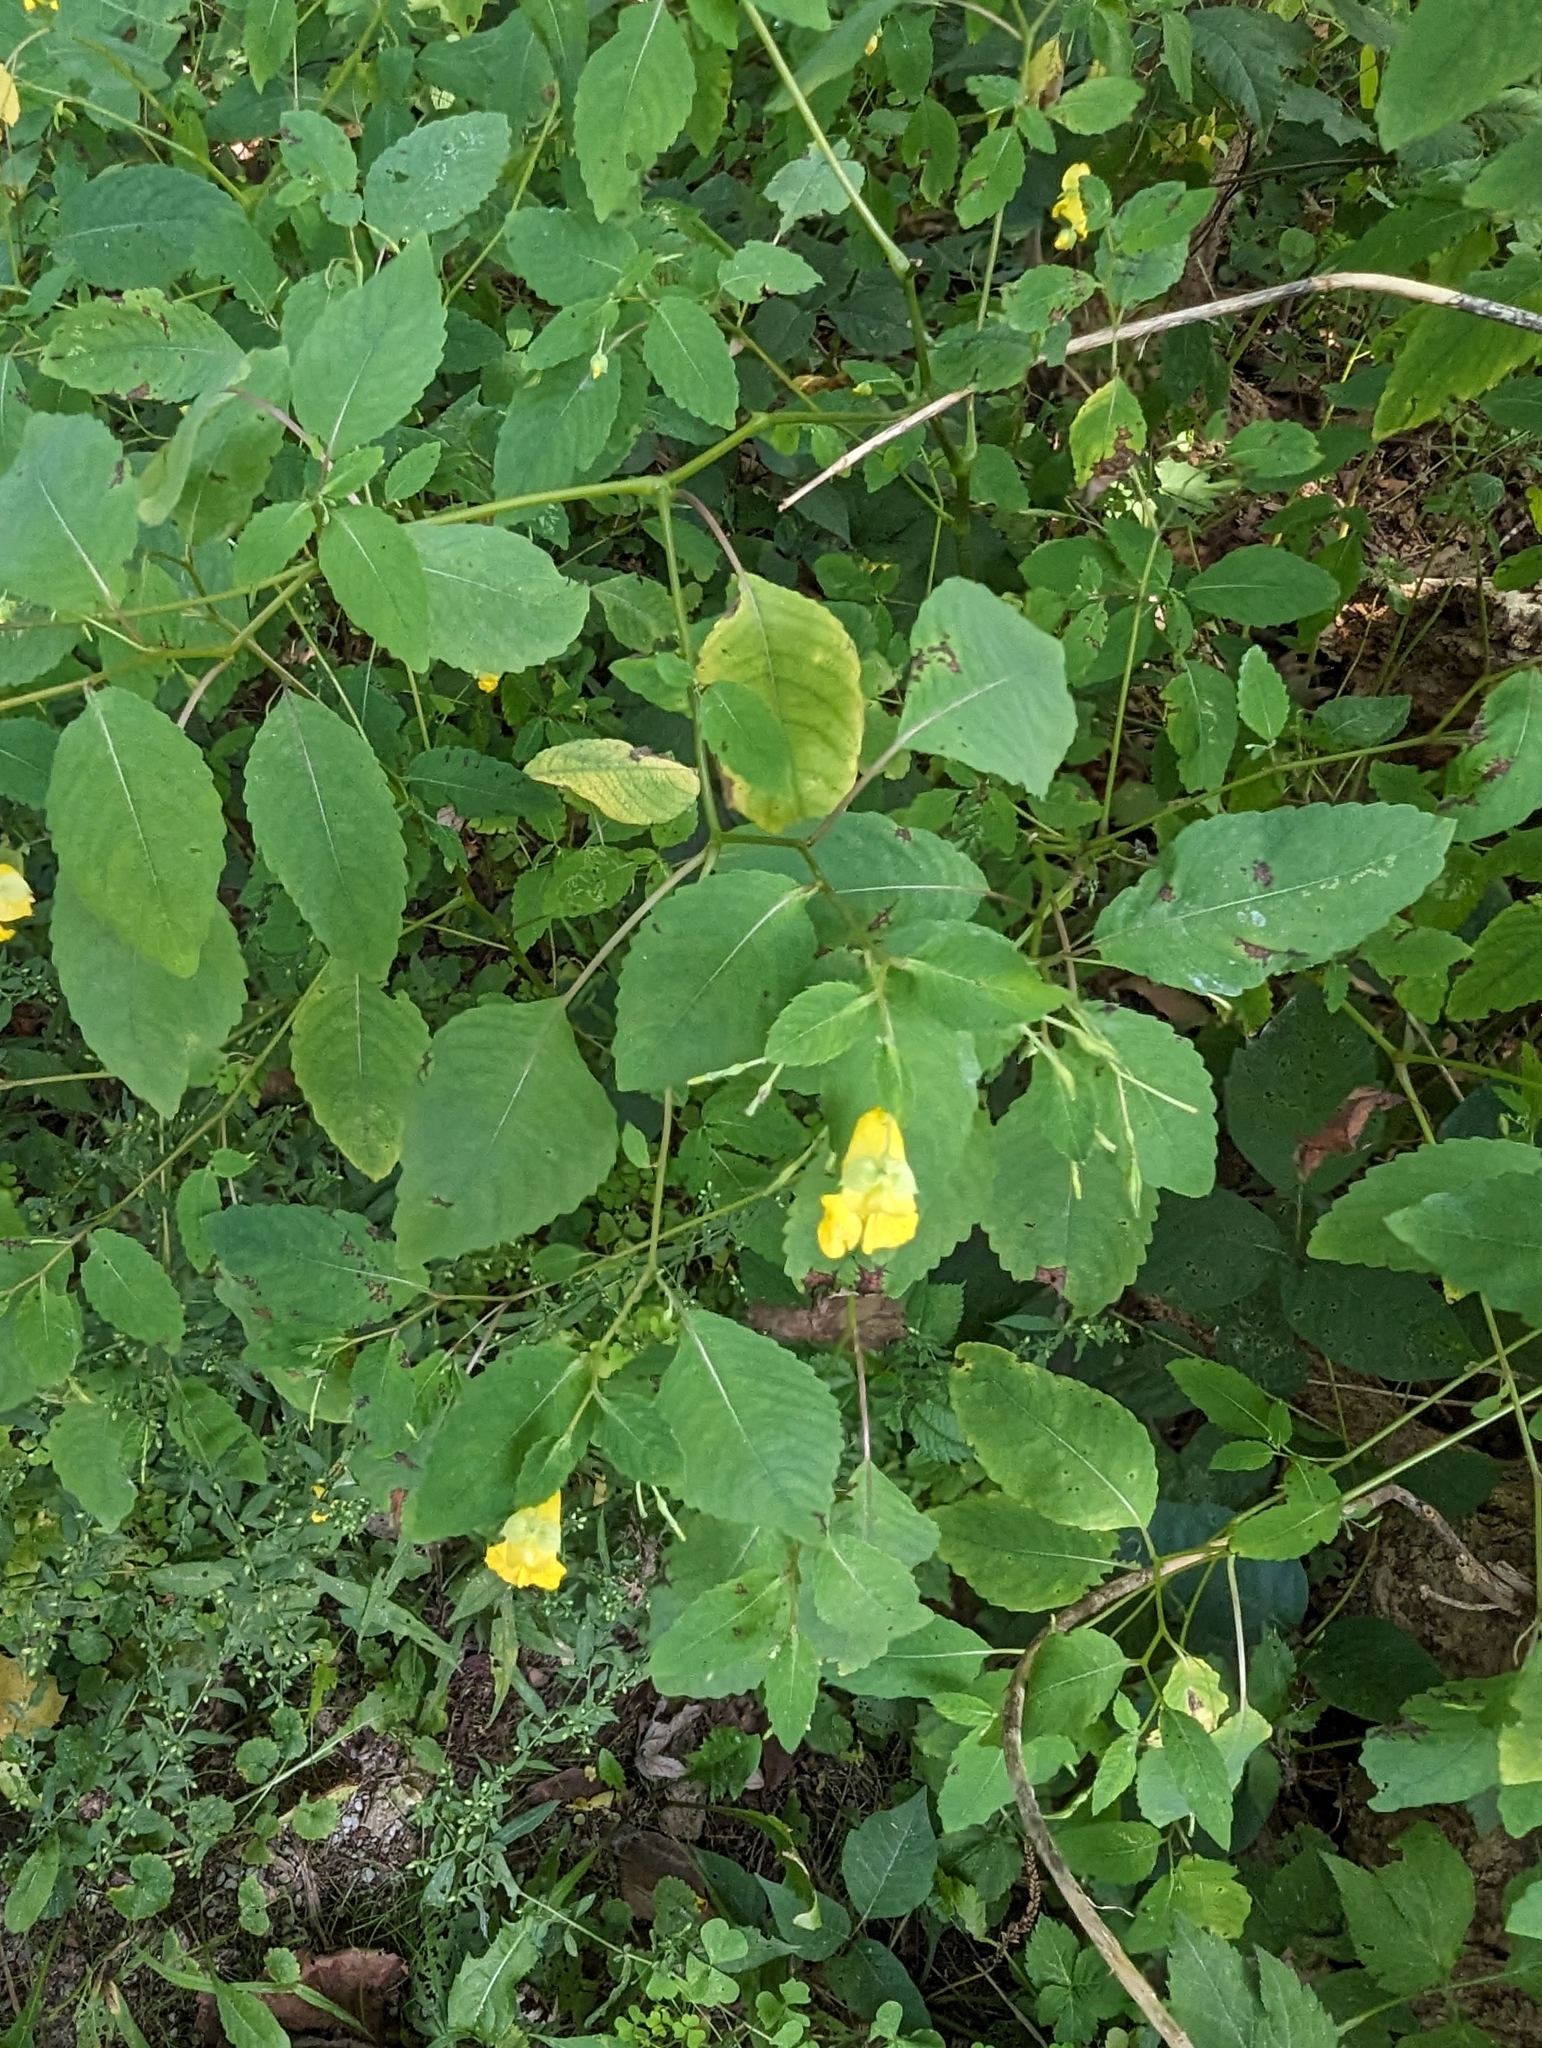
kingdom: Plantae
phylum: Tracheophyta
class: Magnoliopsida
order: Ericales
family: Balsaminaceae
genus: Impatiens
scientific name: Impatiens pallida
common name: Pale snapweed
